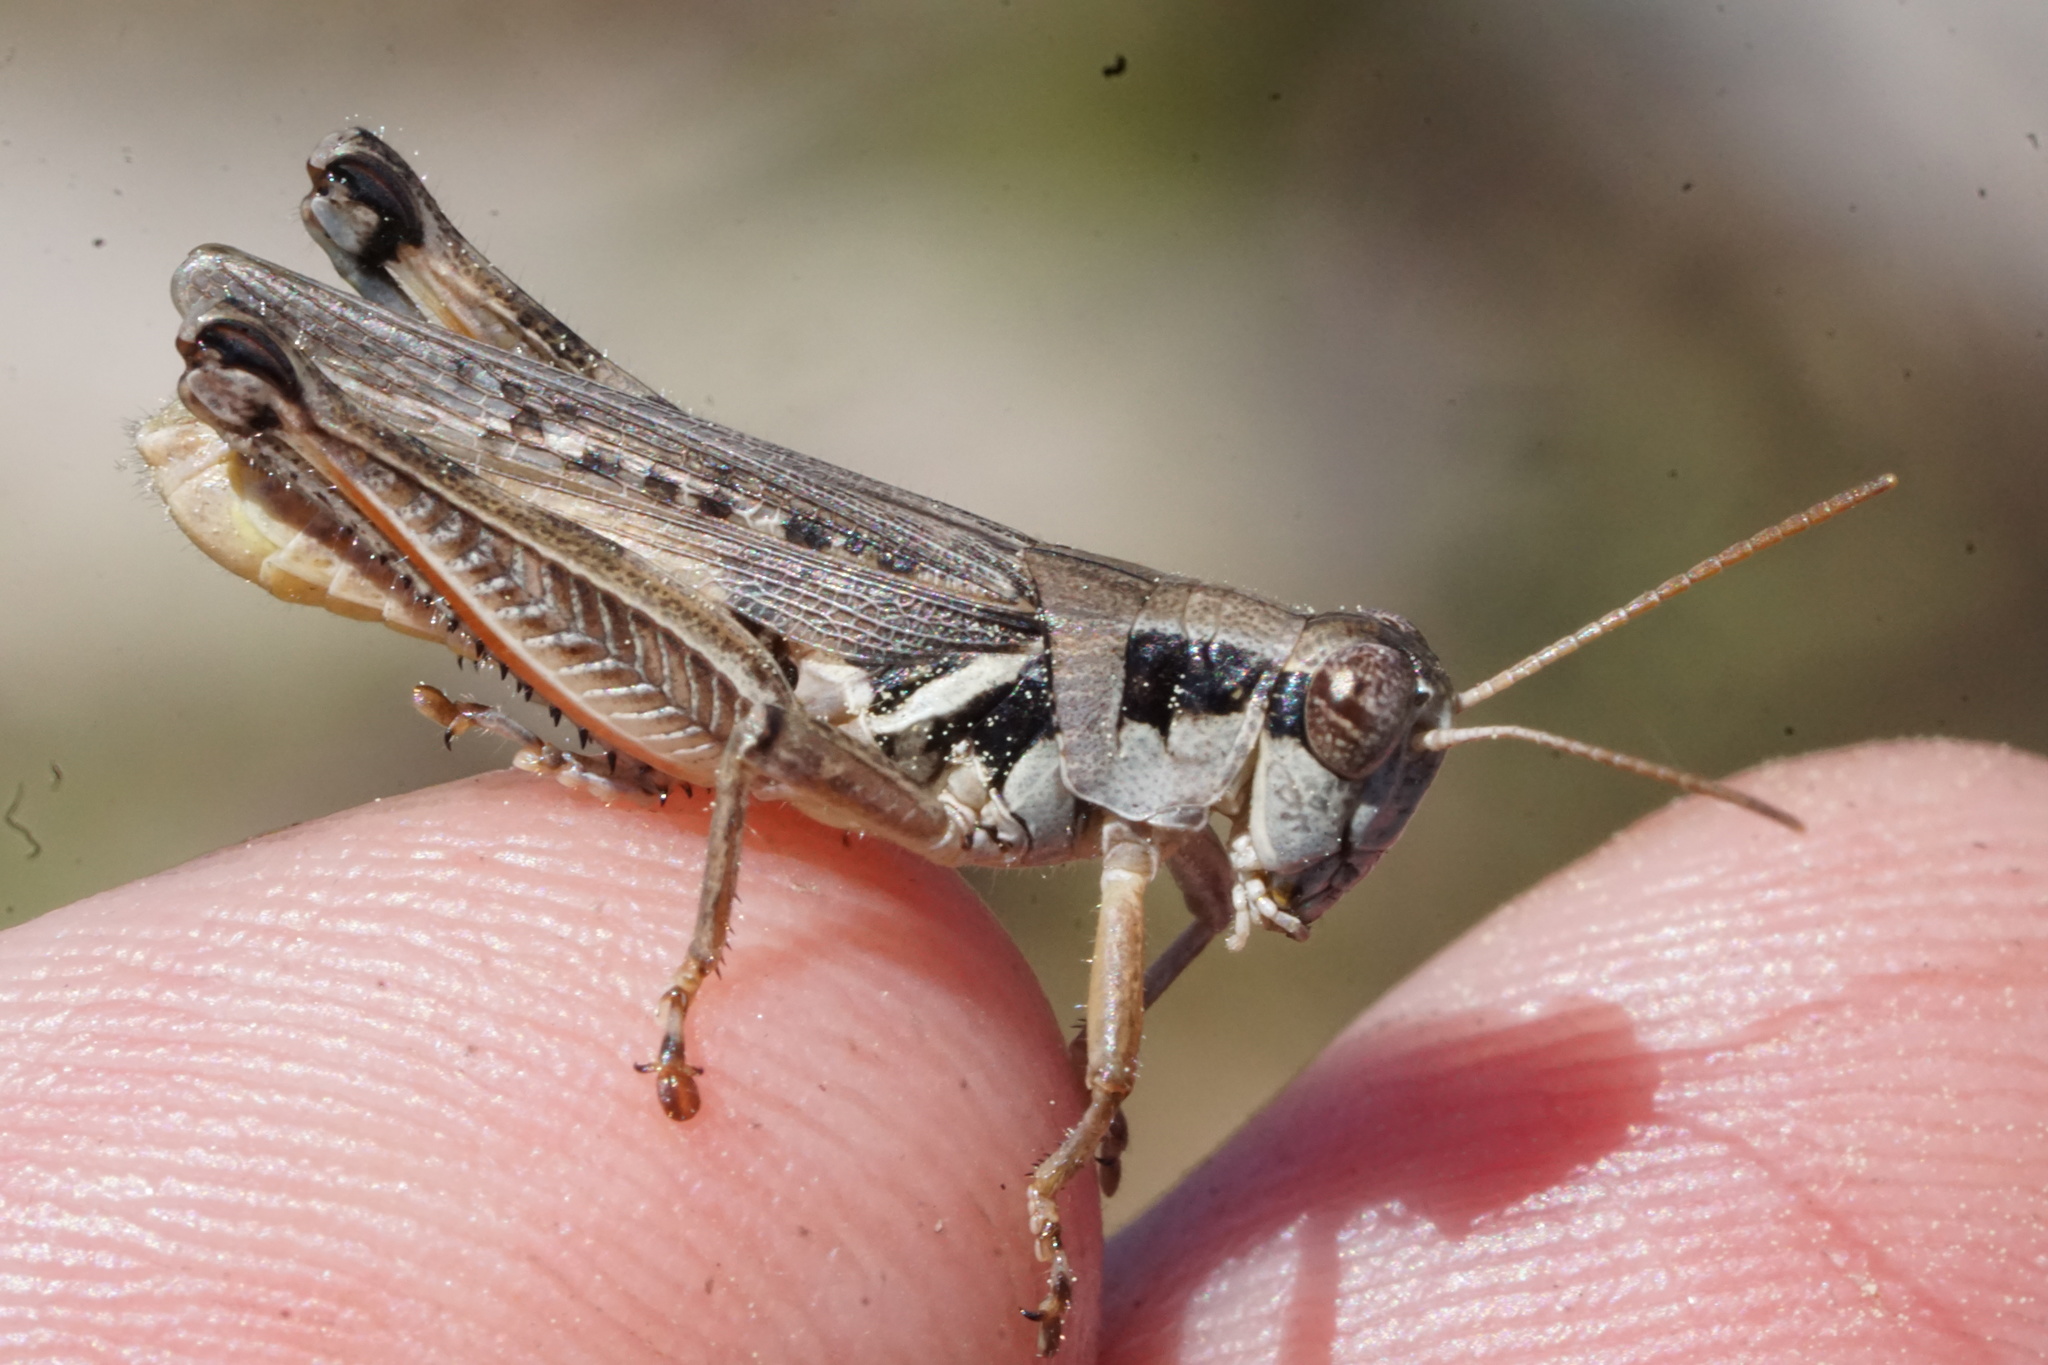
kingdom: Animalia
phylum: Arthropoda
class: Insecta
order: Orthoptera
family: Acrididae
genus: Melanoplus
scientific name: Melanoplus confusus
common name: Little pasture locust
